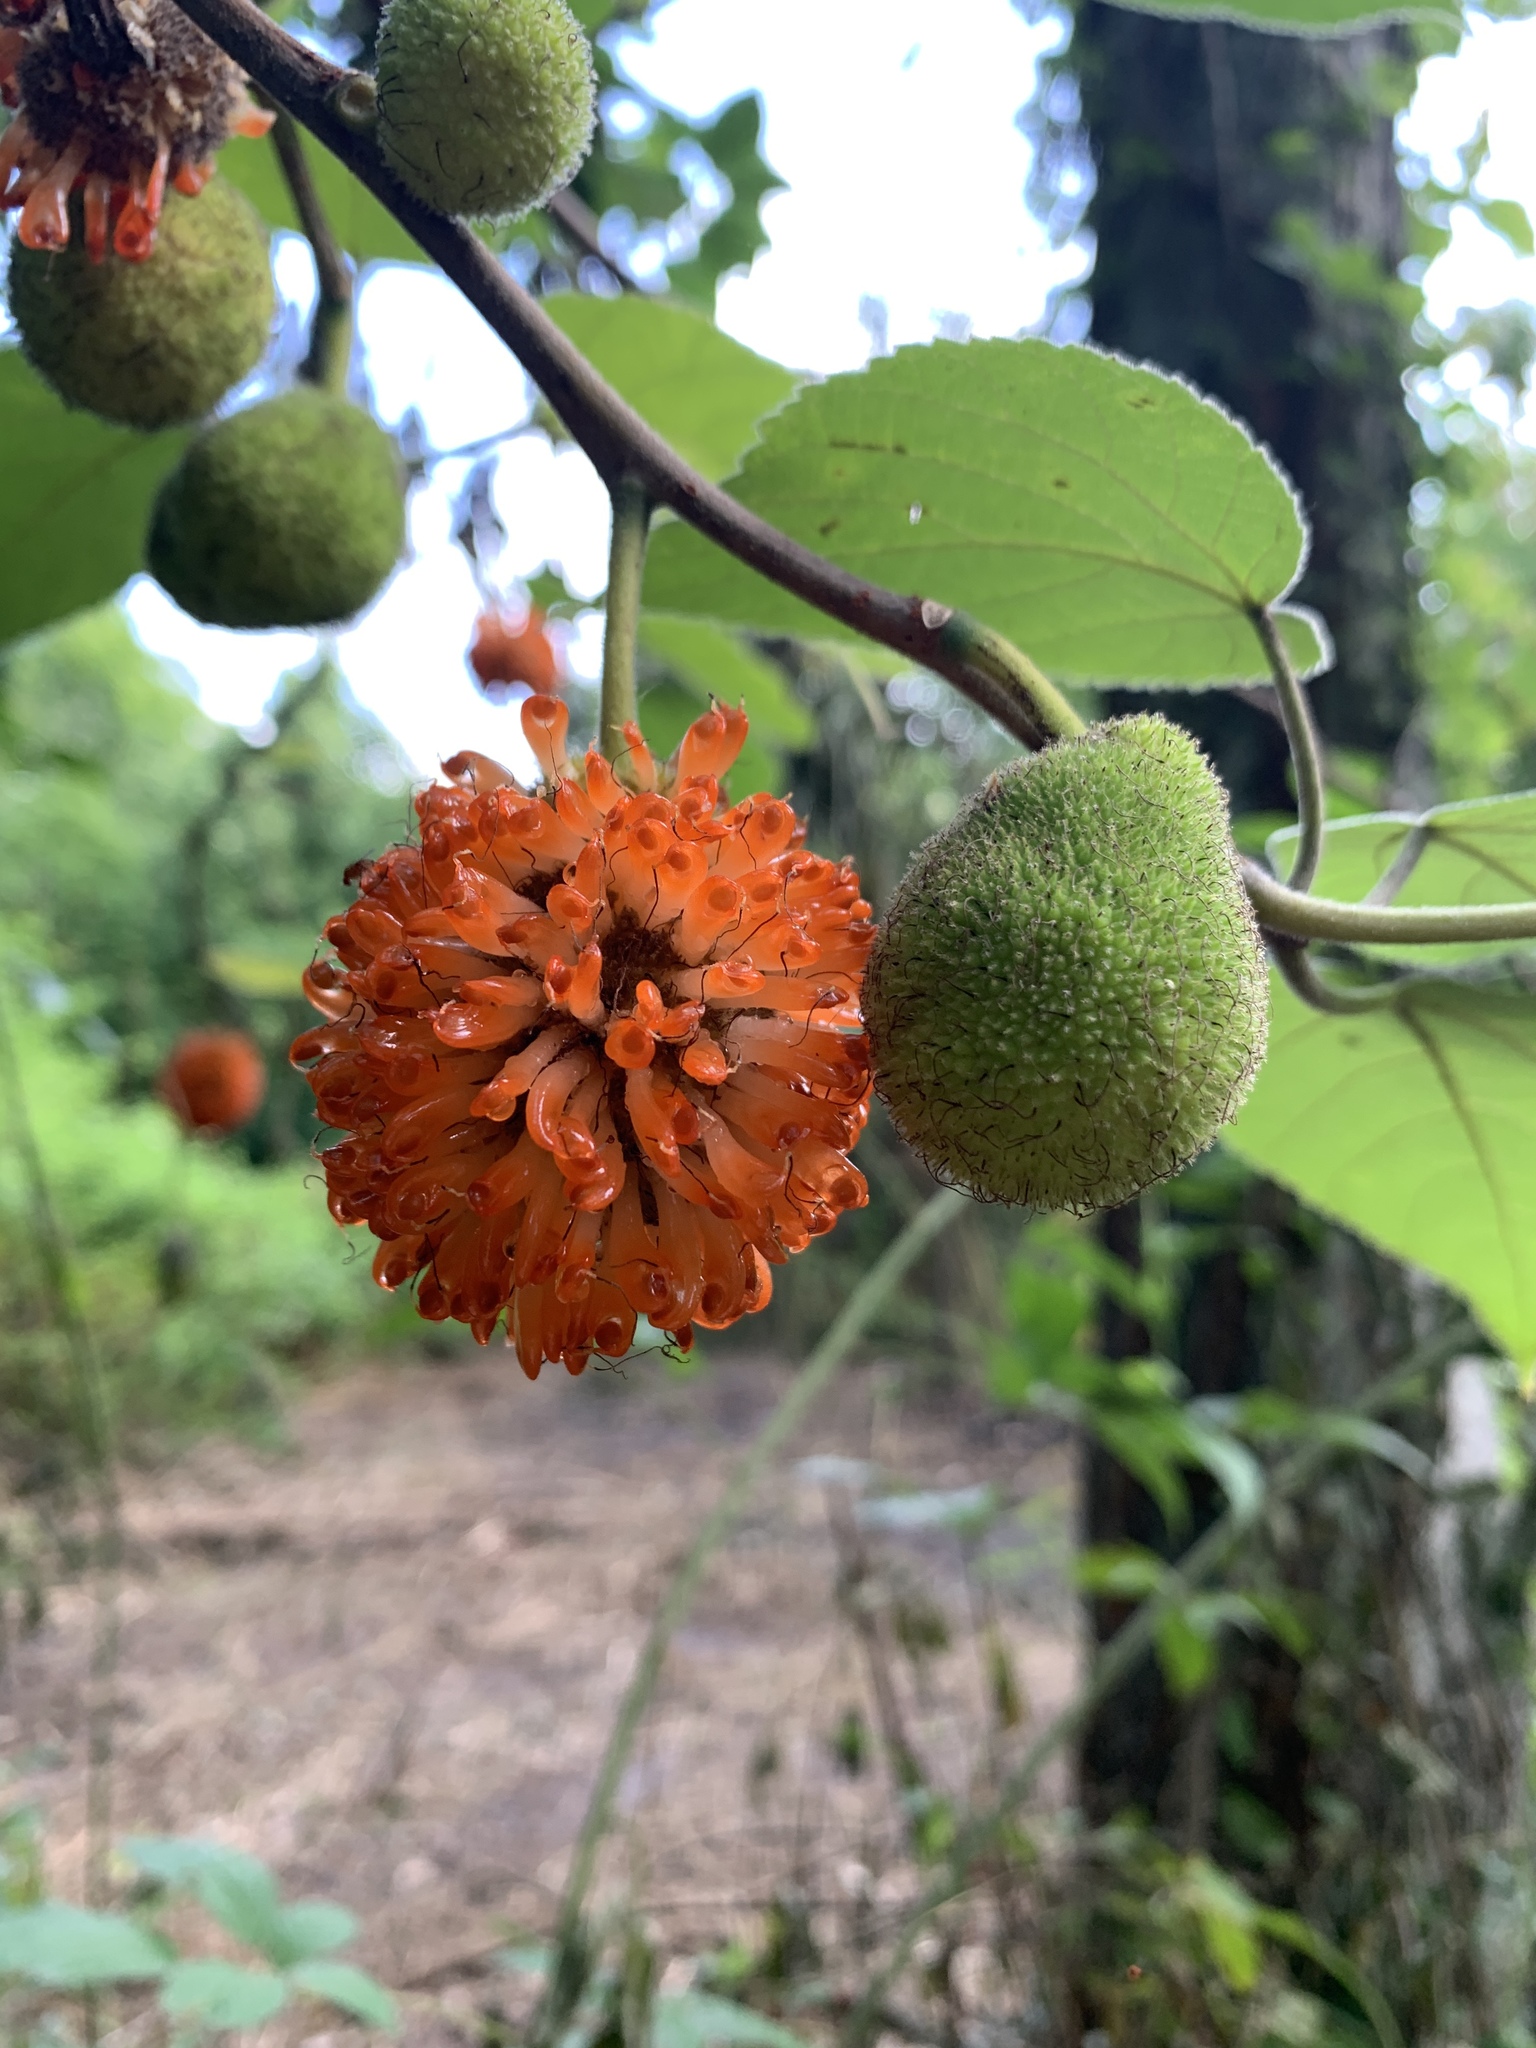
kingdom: Plantae
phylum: Tracheophyta
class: Magnoliopsida
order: Rosales
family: Moraceae
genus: Broussonetia
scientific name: Broussonetia papyrifera
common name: Paper mulberry
